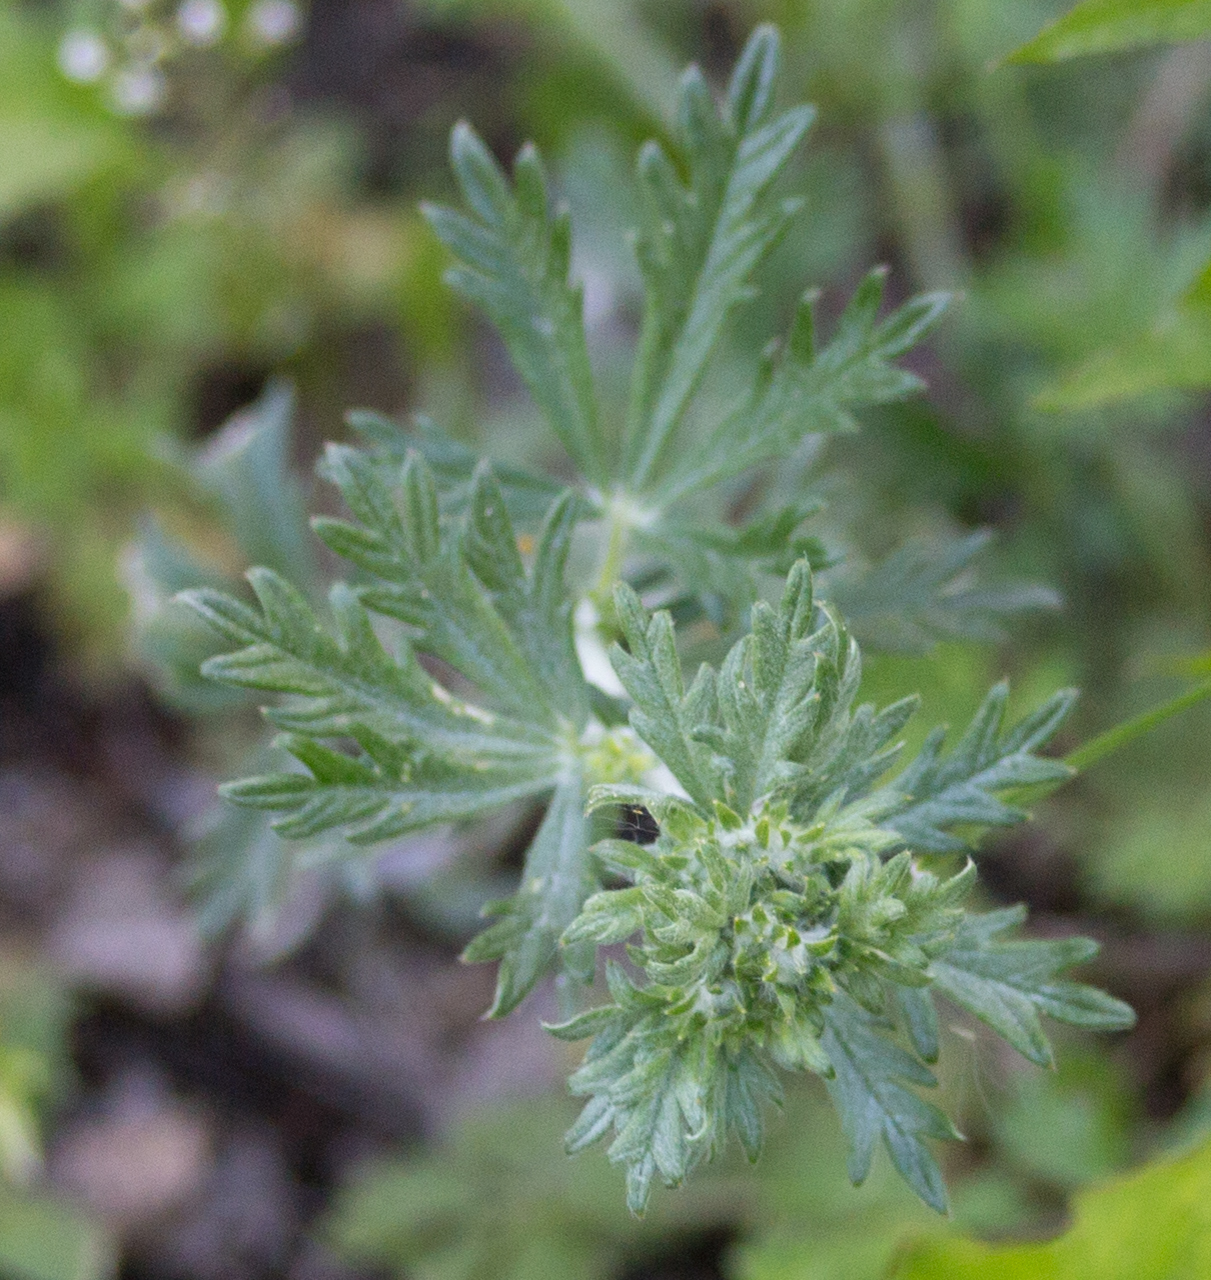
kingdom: Plantae
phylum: Tracheophyta
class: Magnoliopsida
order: Rosales
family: Rosaceae
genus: Potentilla
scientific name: Potentilla argentea
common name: Hoary cinquefoil
